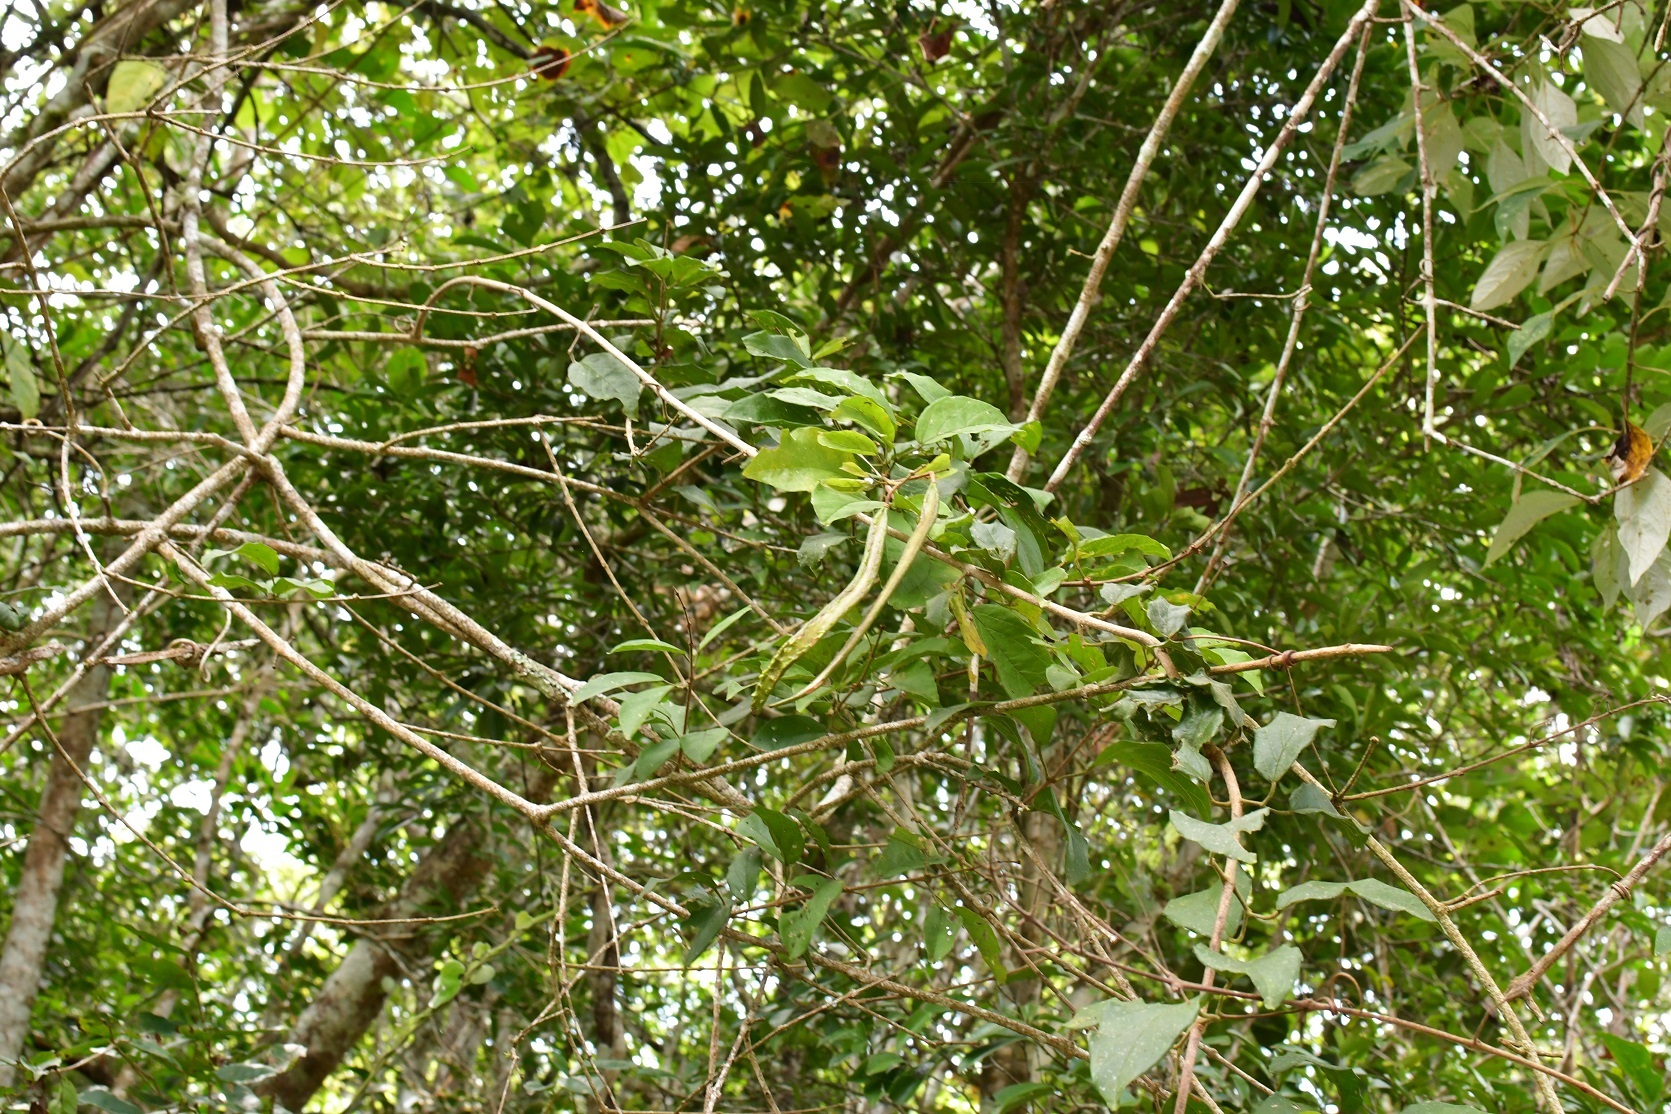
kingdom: Plantae
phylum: Tracheophyta
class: Magnoliopsida
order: Lamiales
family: Bignoniaceae
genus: Fridericia
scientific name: Fridericia chica
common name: Cricketvine
